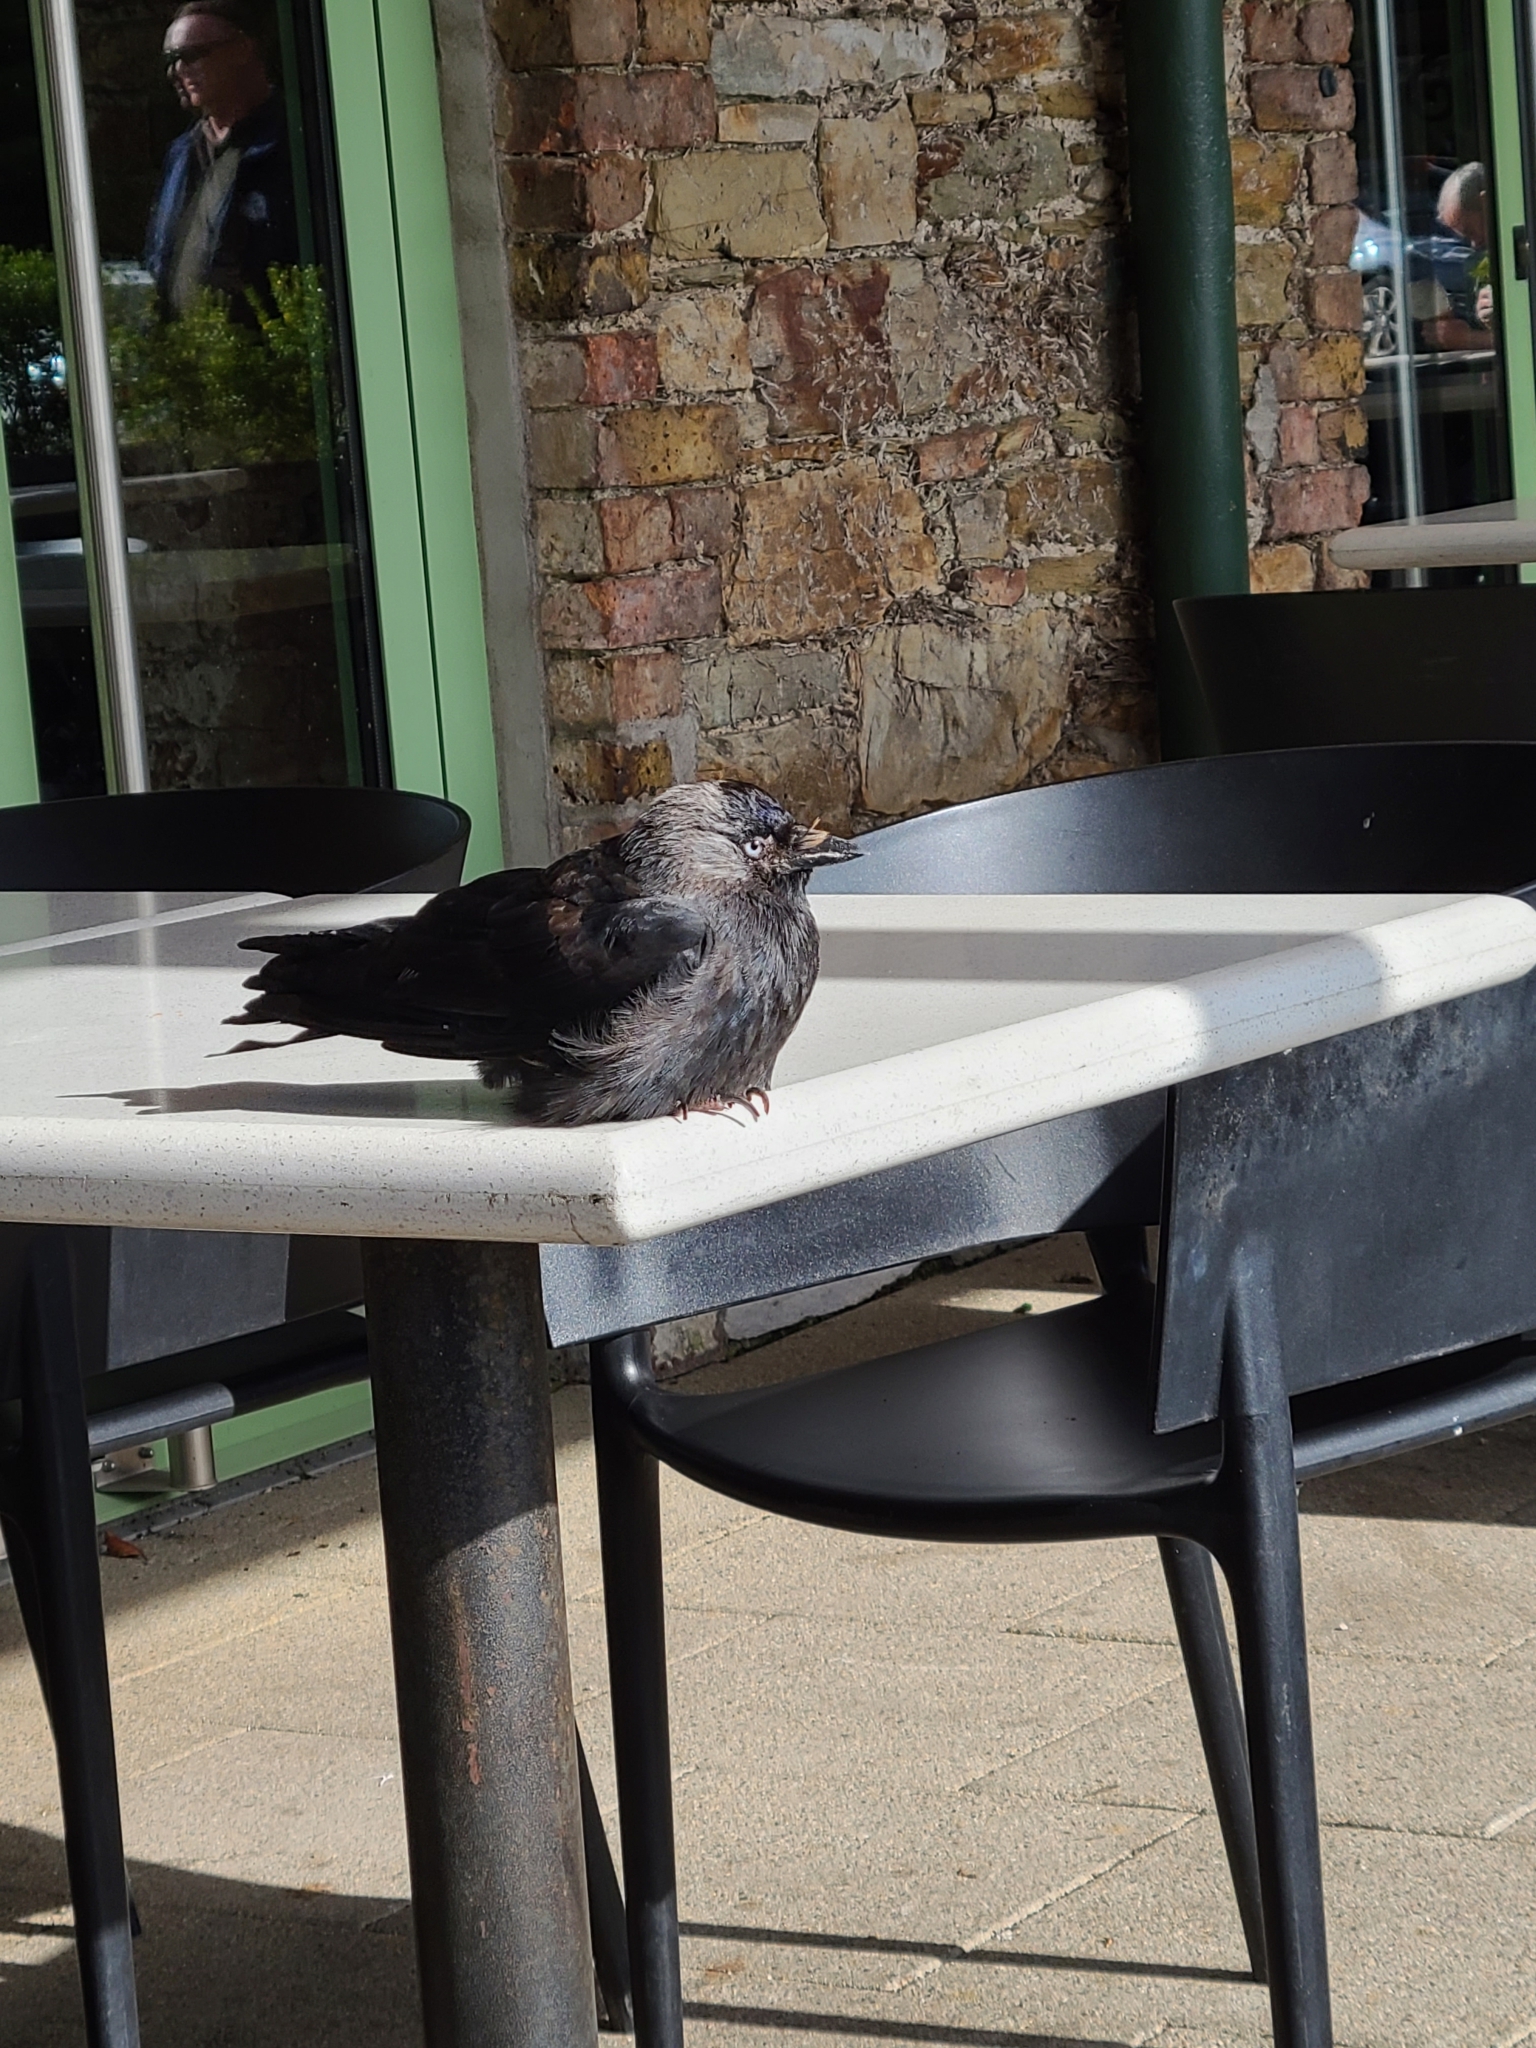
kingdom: Animalia
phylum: Chordata
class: Aves
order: Passeriformes
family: Corvidae
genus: Coloeus
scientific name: Coloeus monedula
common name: Western jackdaw
